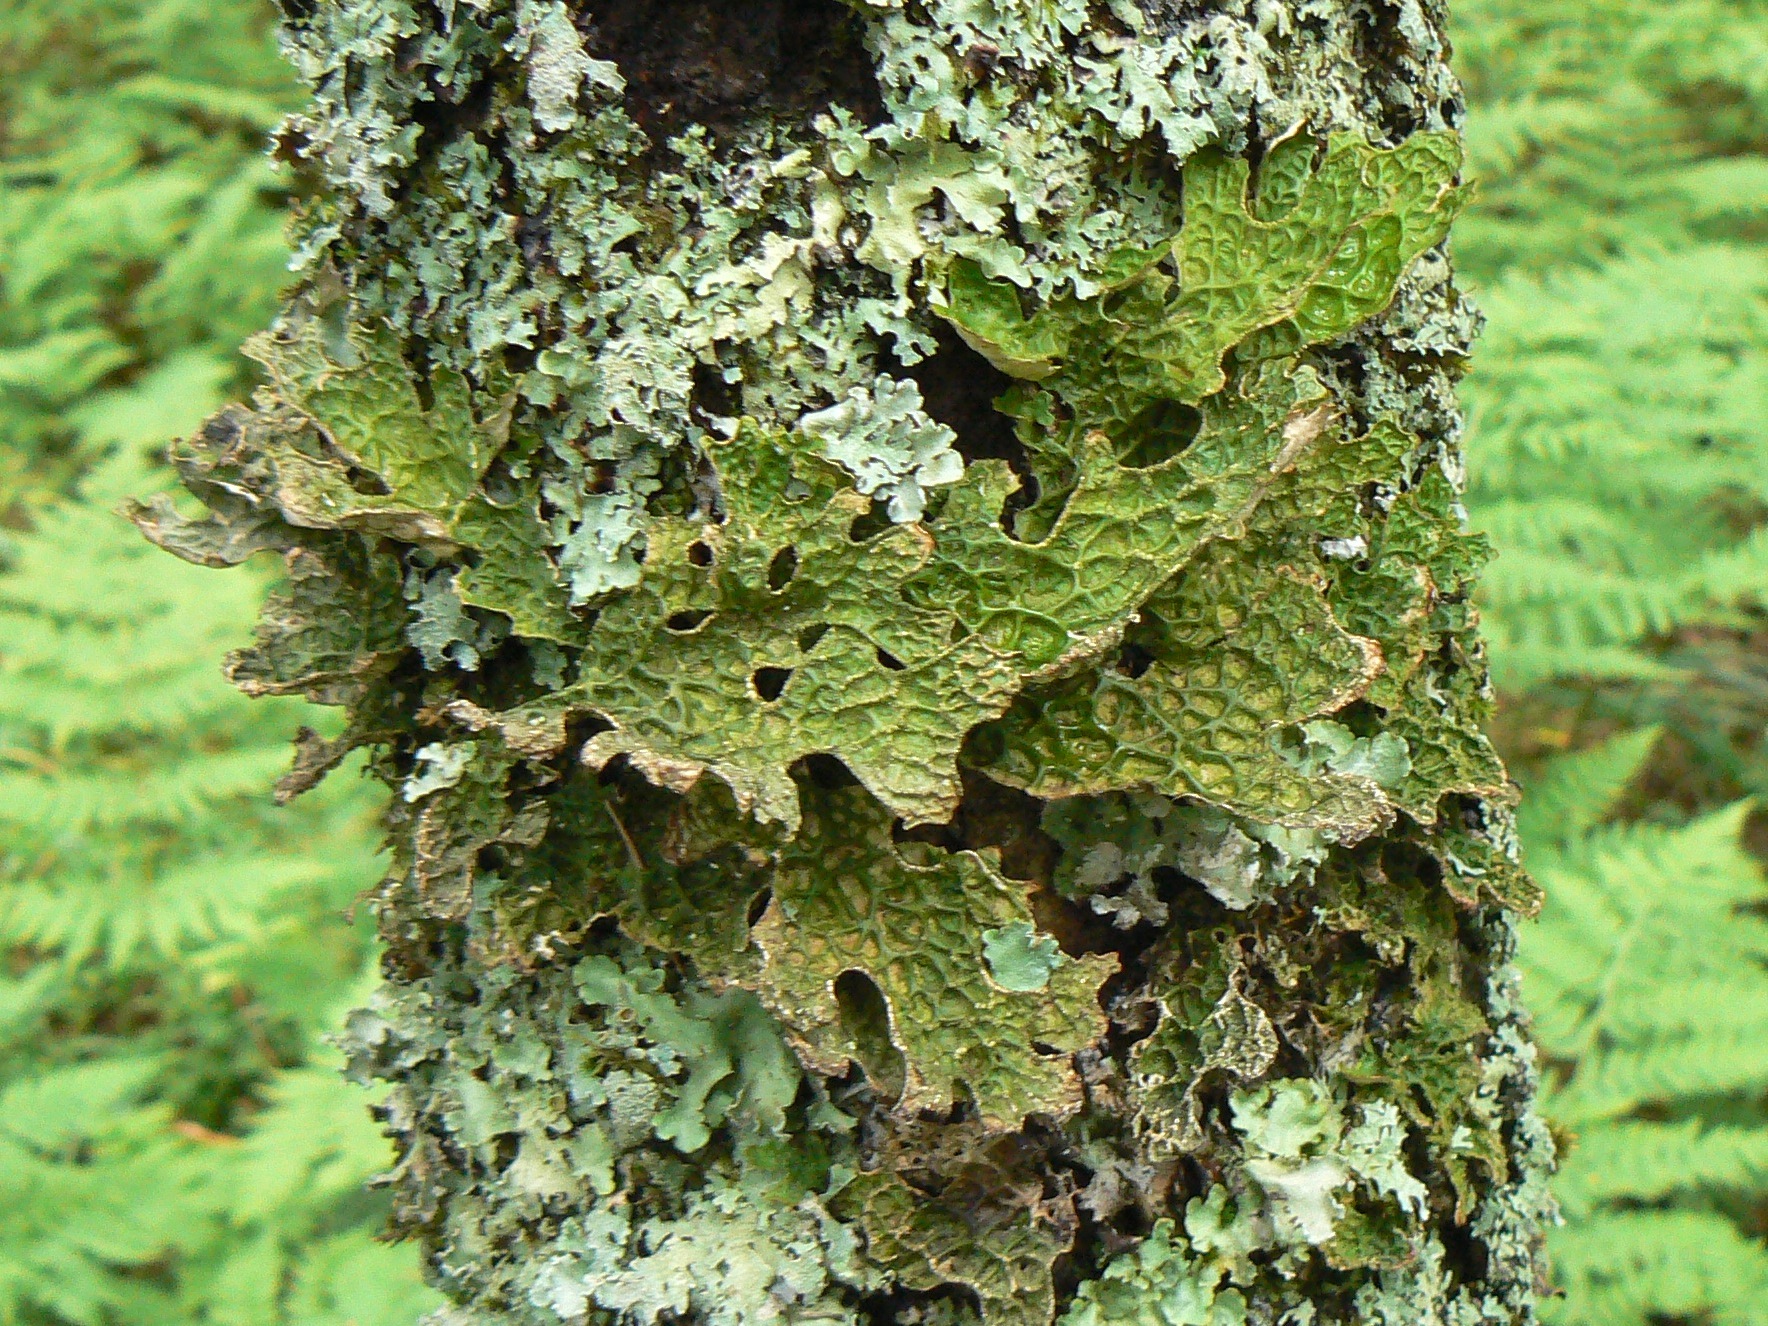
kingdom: Fungi
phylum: Ascomycota
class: Lecanoromycetes
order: Peltigerales
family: Lobariaceae
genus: Lobaria
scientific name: Lobaria pulmonaria
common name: Lungwort
